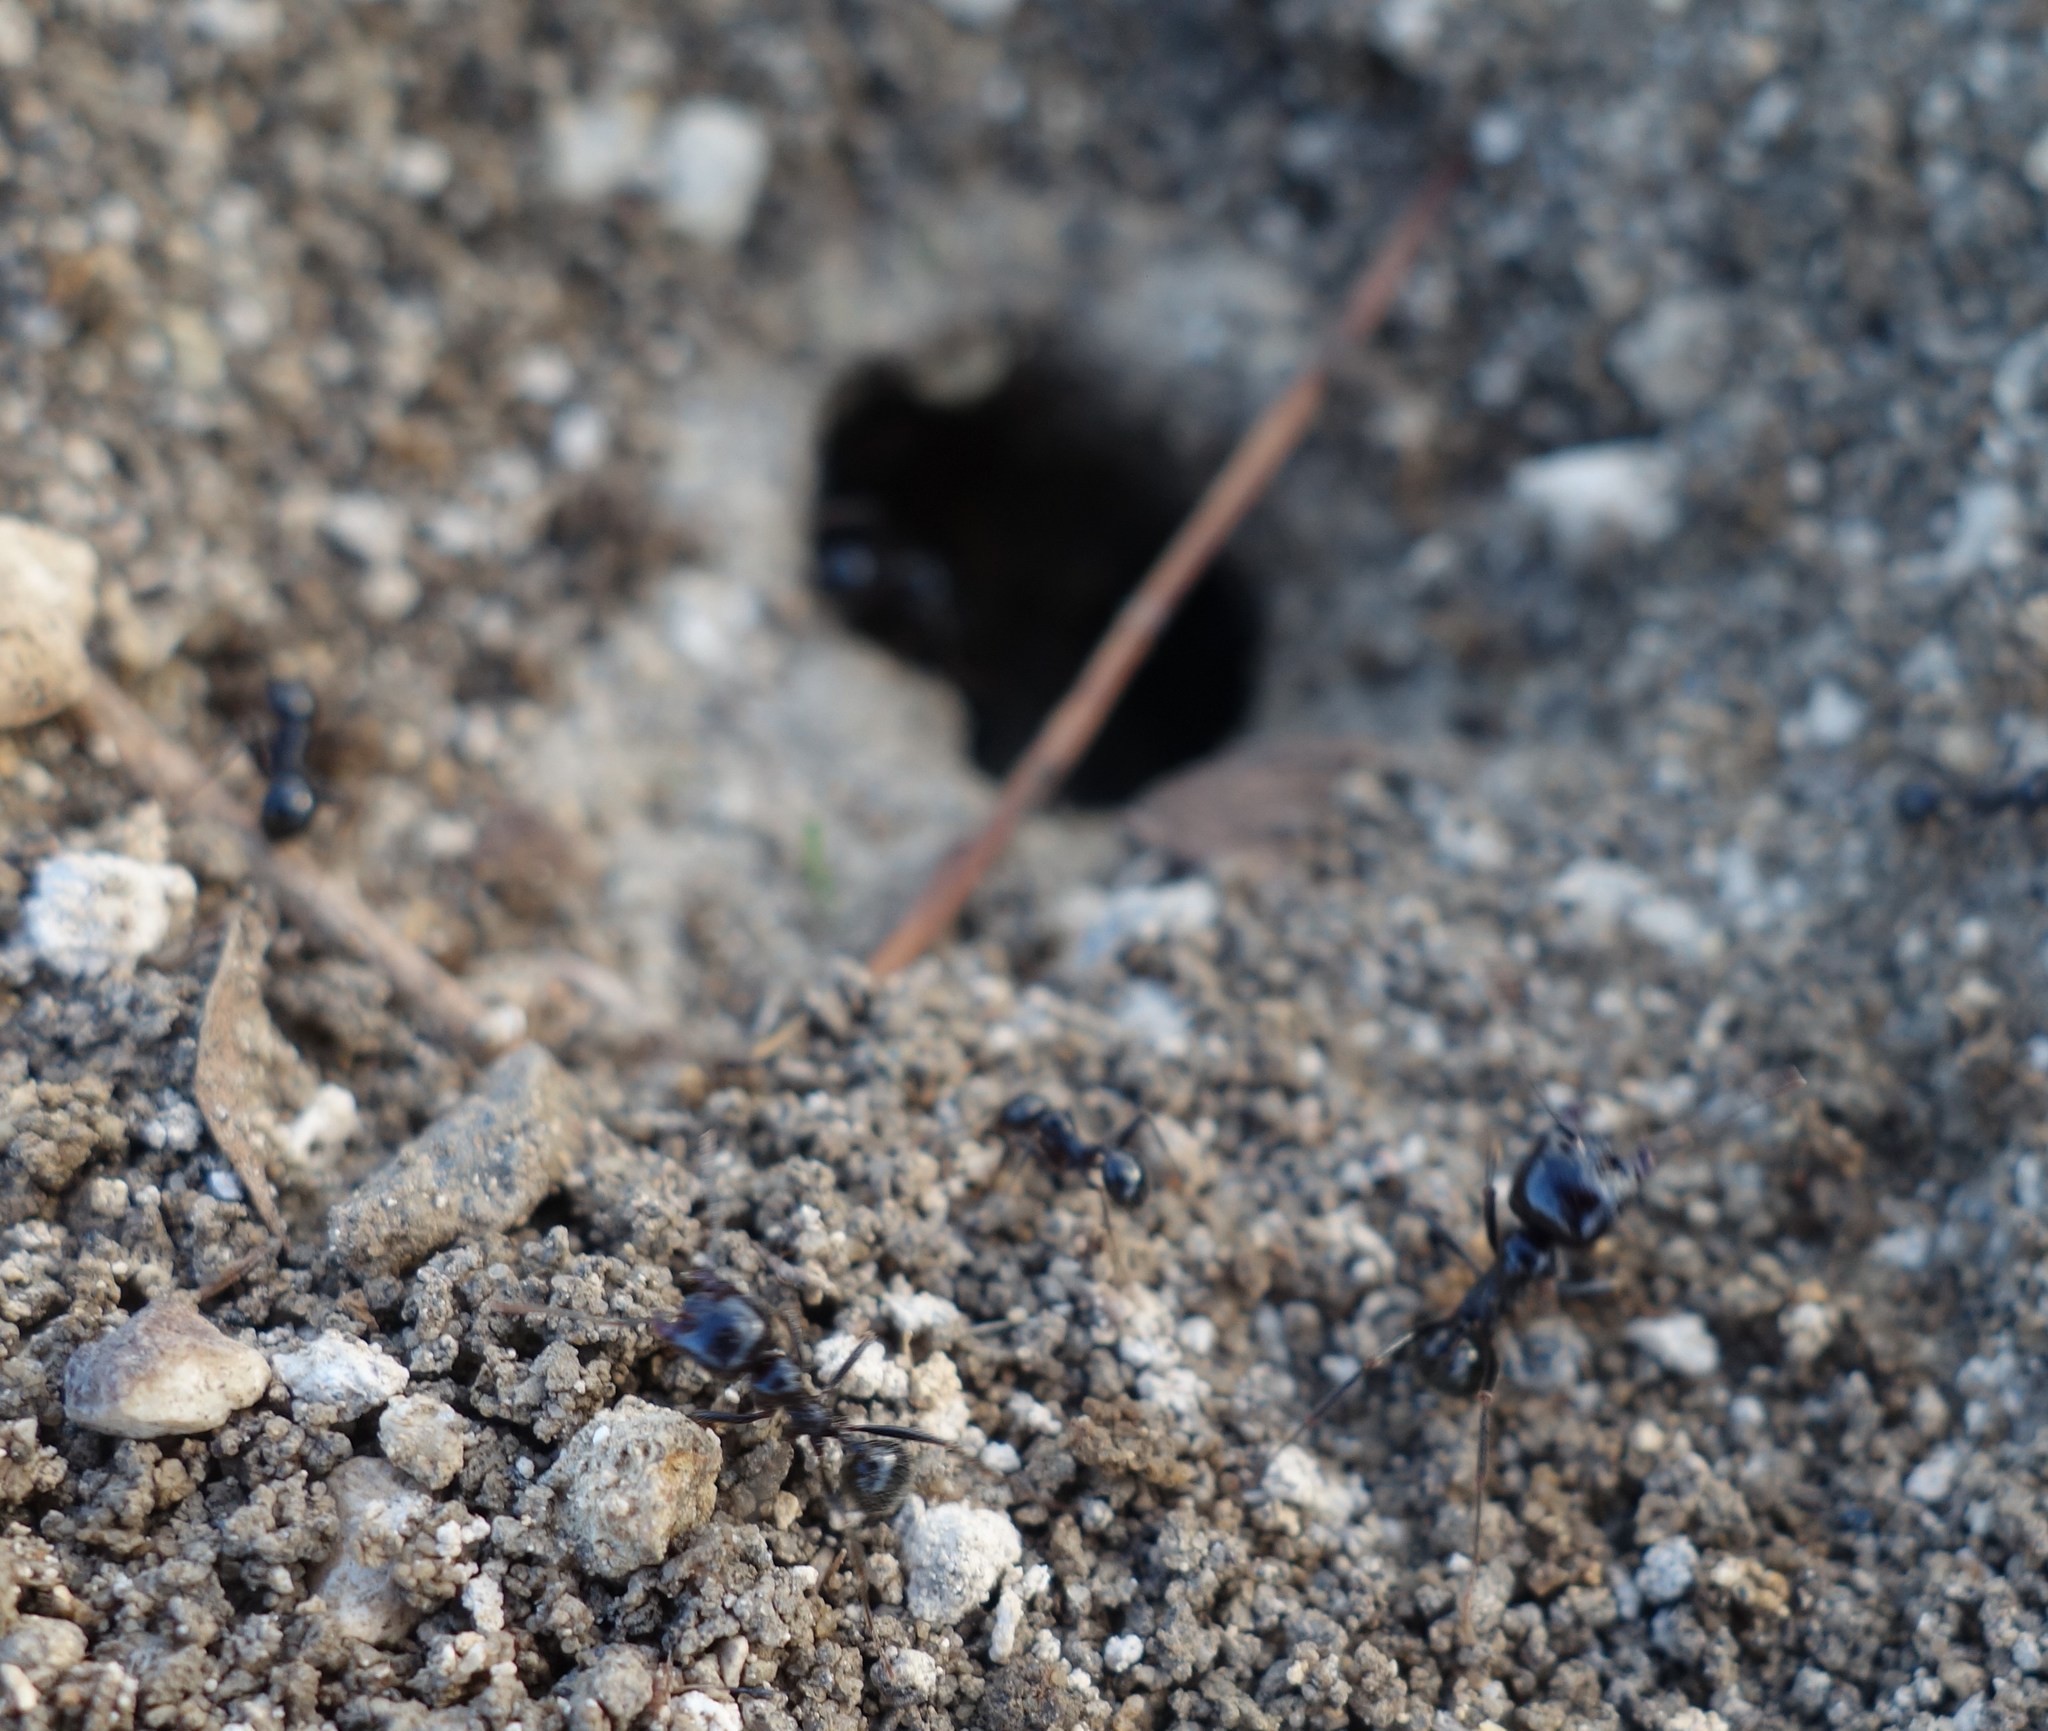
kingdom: Animalia
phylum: Arthropoda
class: Insecta
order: Hymenoptera
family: Formicidae
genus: Messor
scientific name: Messor capitatus
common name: European seed harvesting ant
